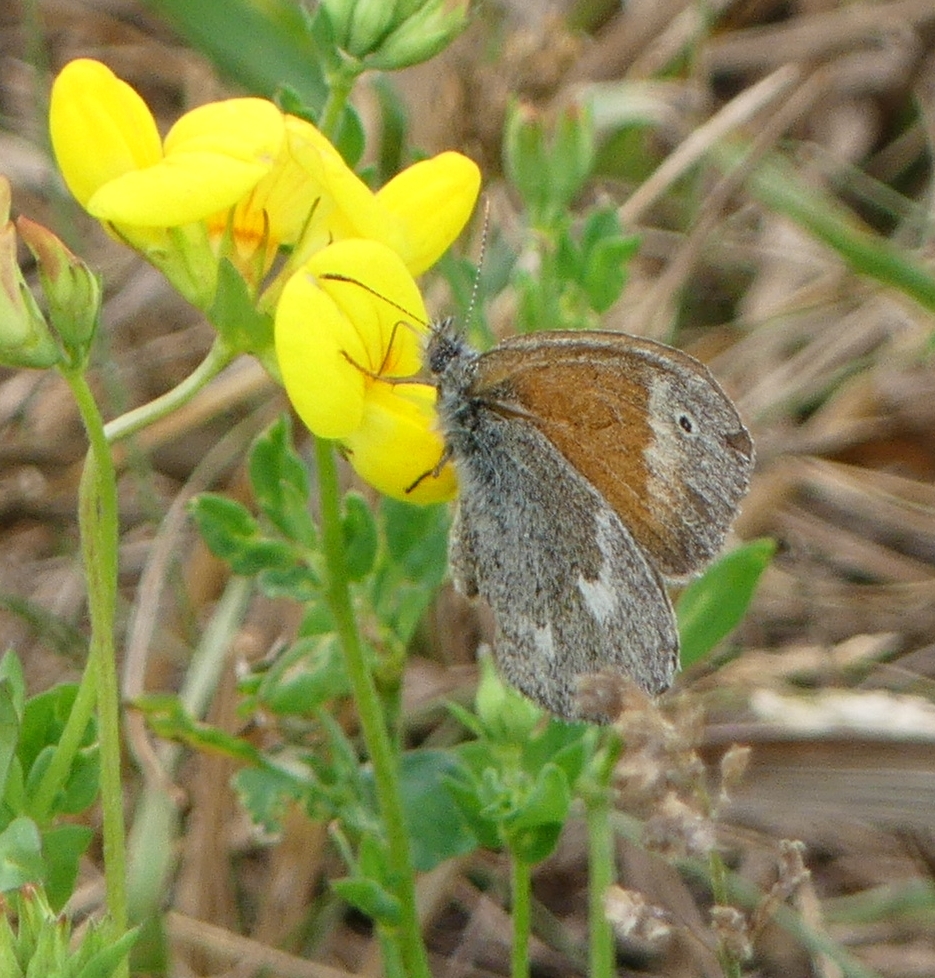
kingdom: Animalia
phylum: Arthropoda
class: Insecta
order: Lepidoptera
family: Nymphalidae
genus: Coenonympha
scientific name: Coenonympha california
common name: Common ringlet
